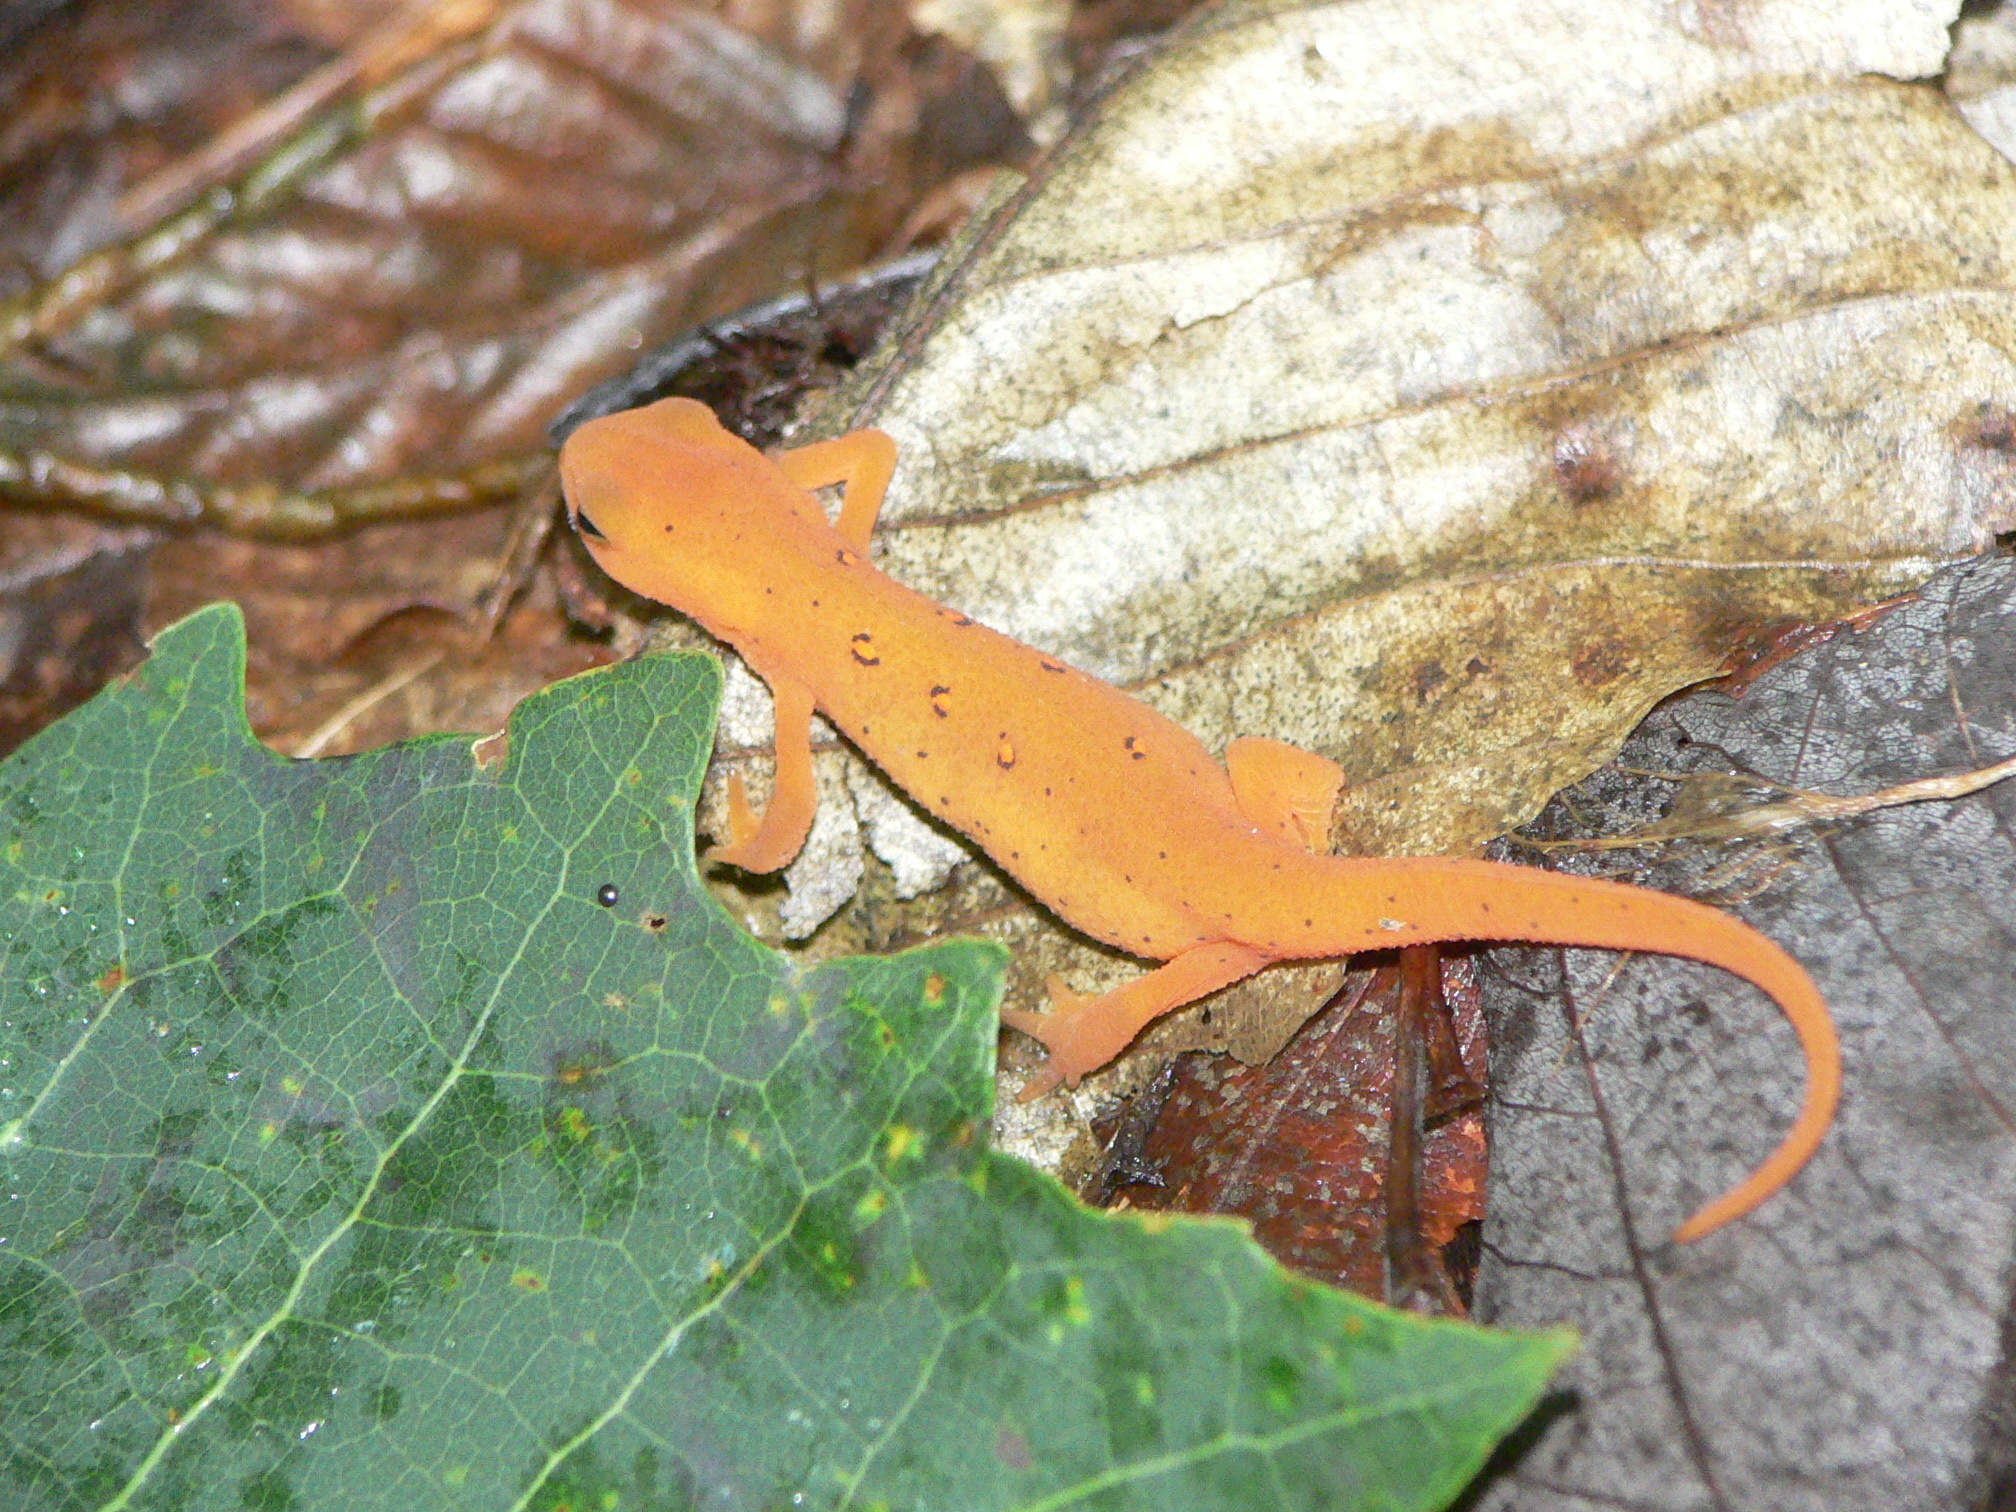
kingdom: Animalia
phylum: Chordata
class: Amphibia
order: Caudata
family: Salamandridae
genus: Notophthalmus
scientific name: Notophthalmus viridescens
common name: Eastern newt
